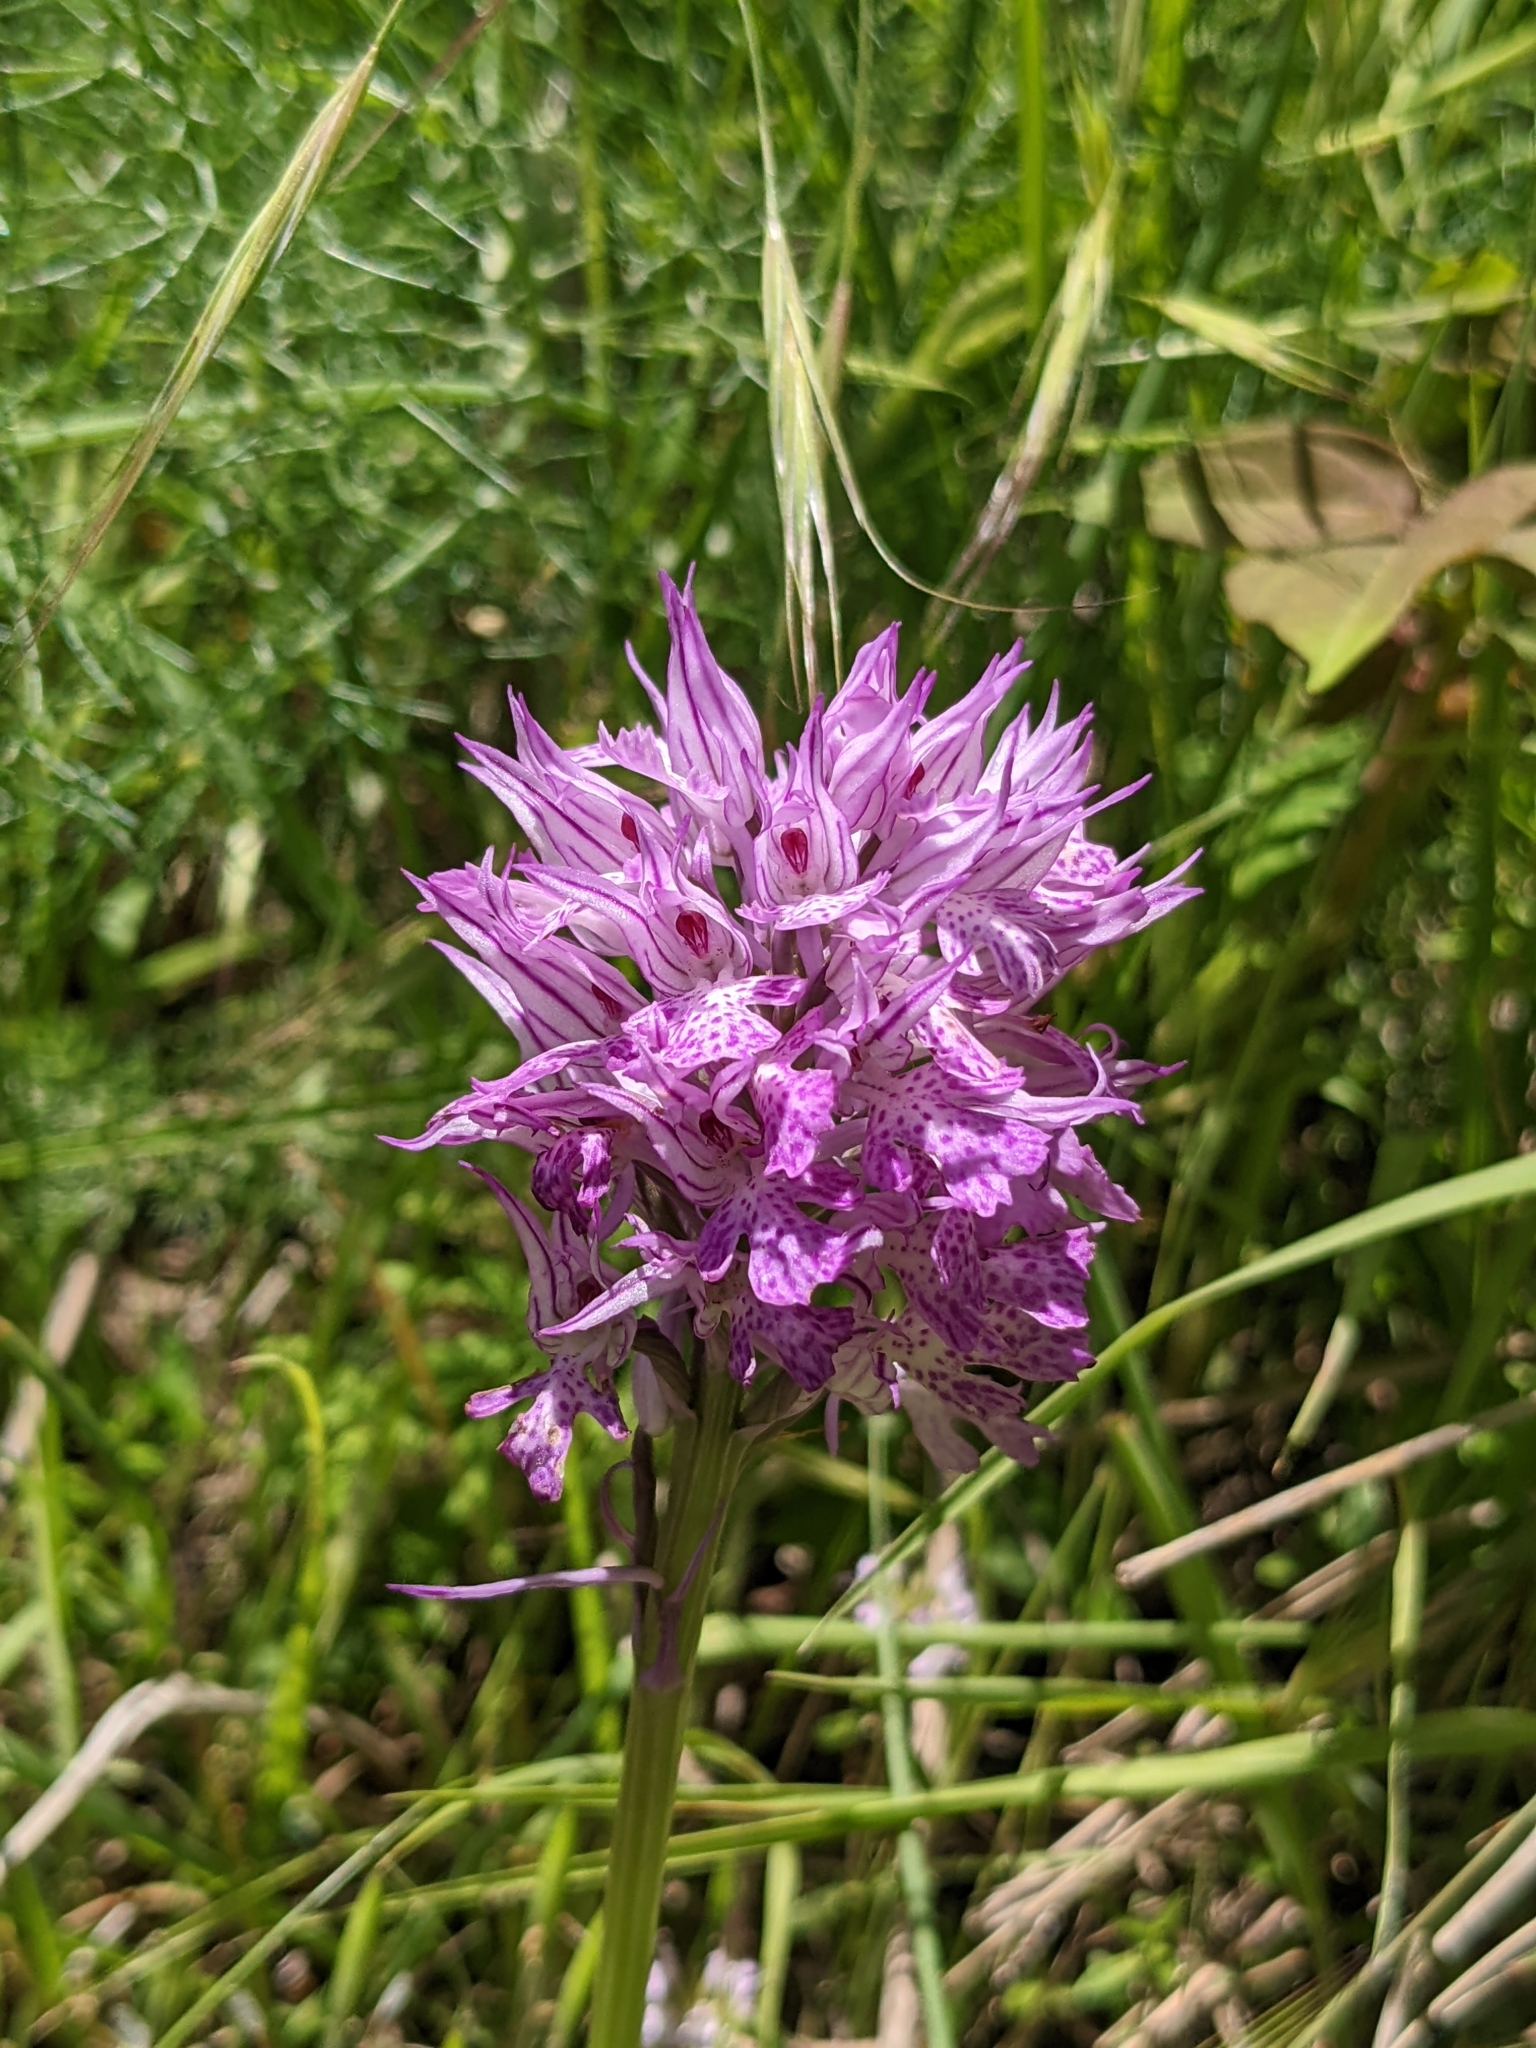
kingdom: Plantae
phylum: Tracheophyta
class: Liliopsida
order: Asparagales
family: Orchidaceae
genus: Neotinea
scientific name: Neotinea tridentata
